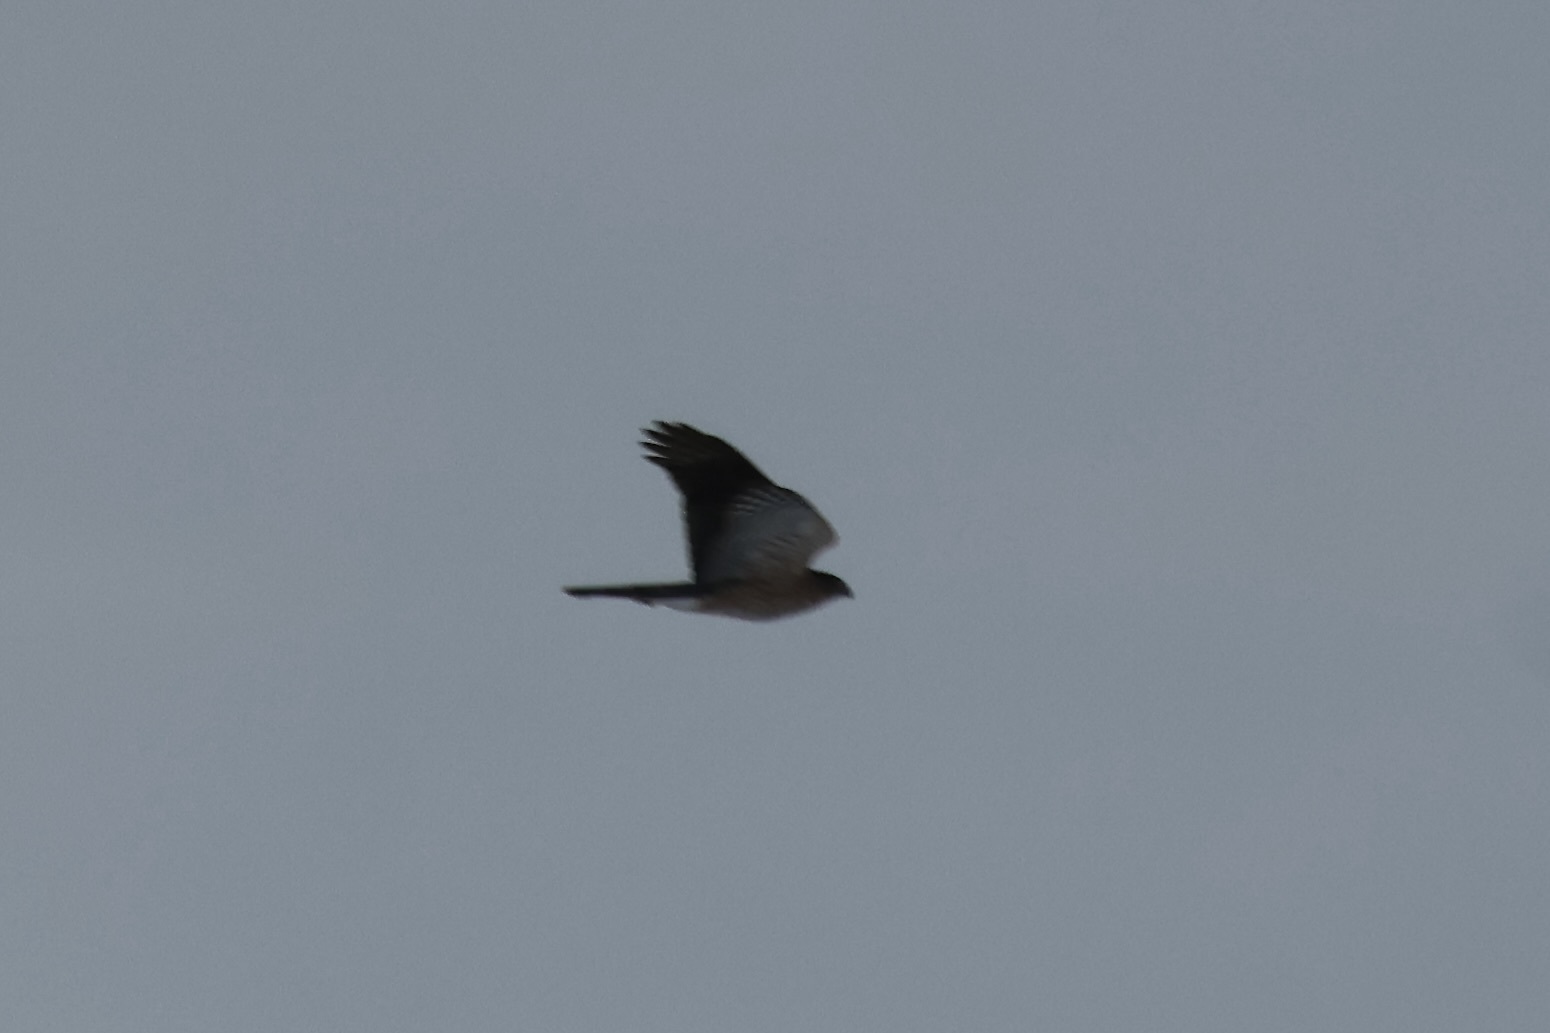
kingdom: Animalia
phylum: Chordata
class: Aves
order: Accipitriformes
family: Accipitridae
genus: Accipiter
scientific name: Accipiter cooperii
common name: Cooper's hawk
